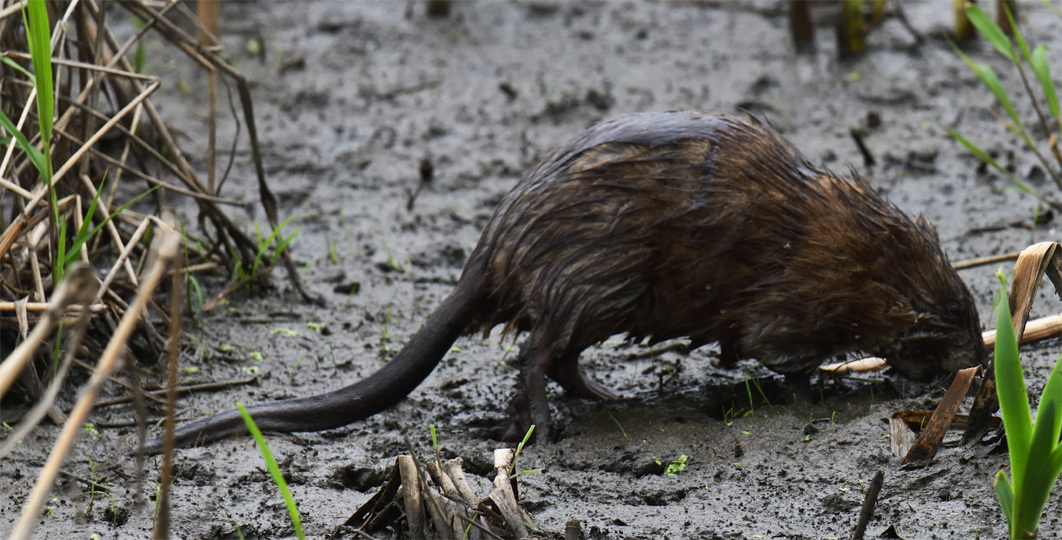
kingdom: Animalia
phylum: Chordata
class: Mammalia
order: Rodentia
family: Cricetidae
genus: Ondatra
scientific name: Ondatra zibethicus
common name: Muskrat
